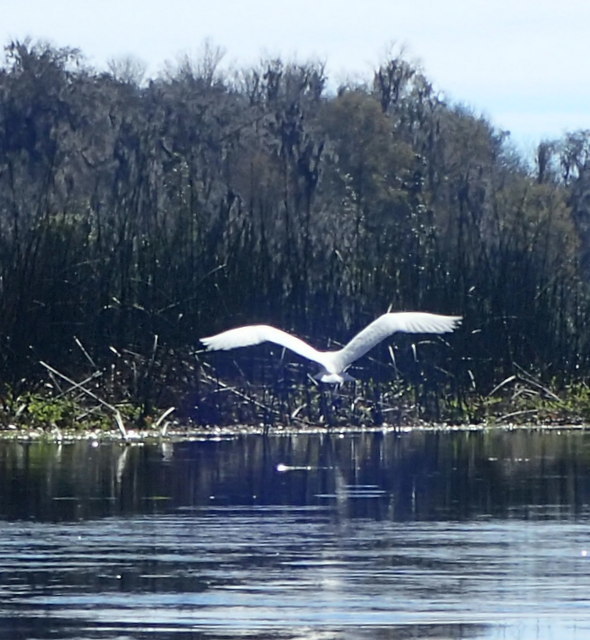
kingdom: Animalia
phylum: Chordata
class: Aves
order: Pelecaniformes
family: Ardeidae
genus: Ardea
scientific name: Ardea alba
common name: Great egret
